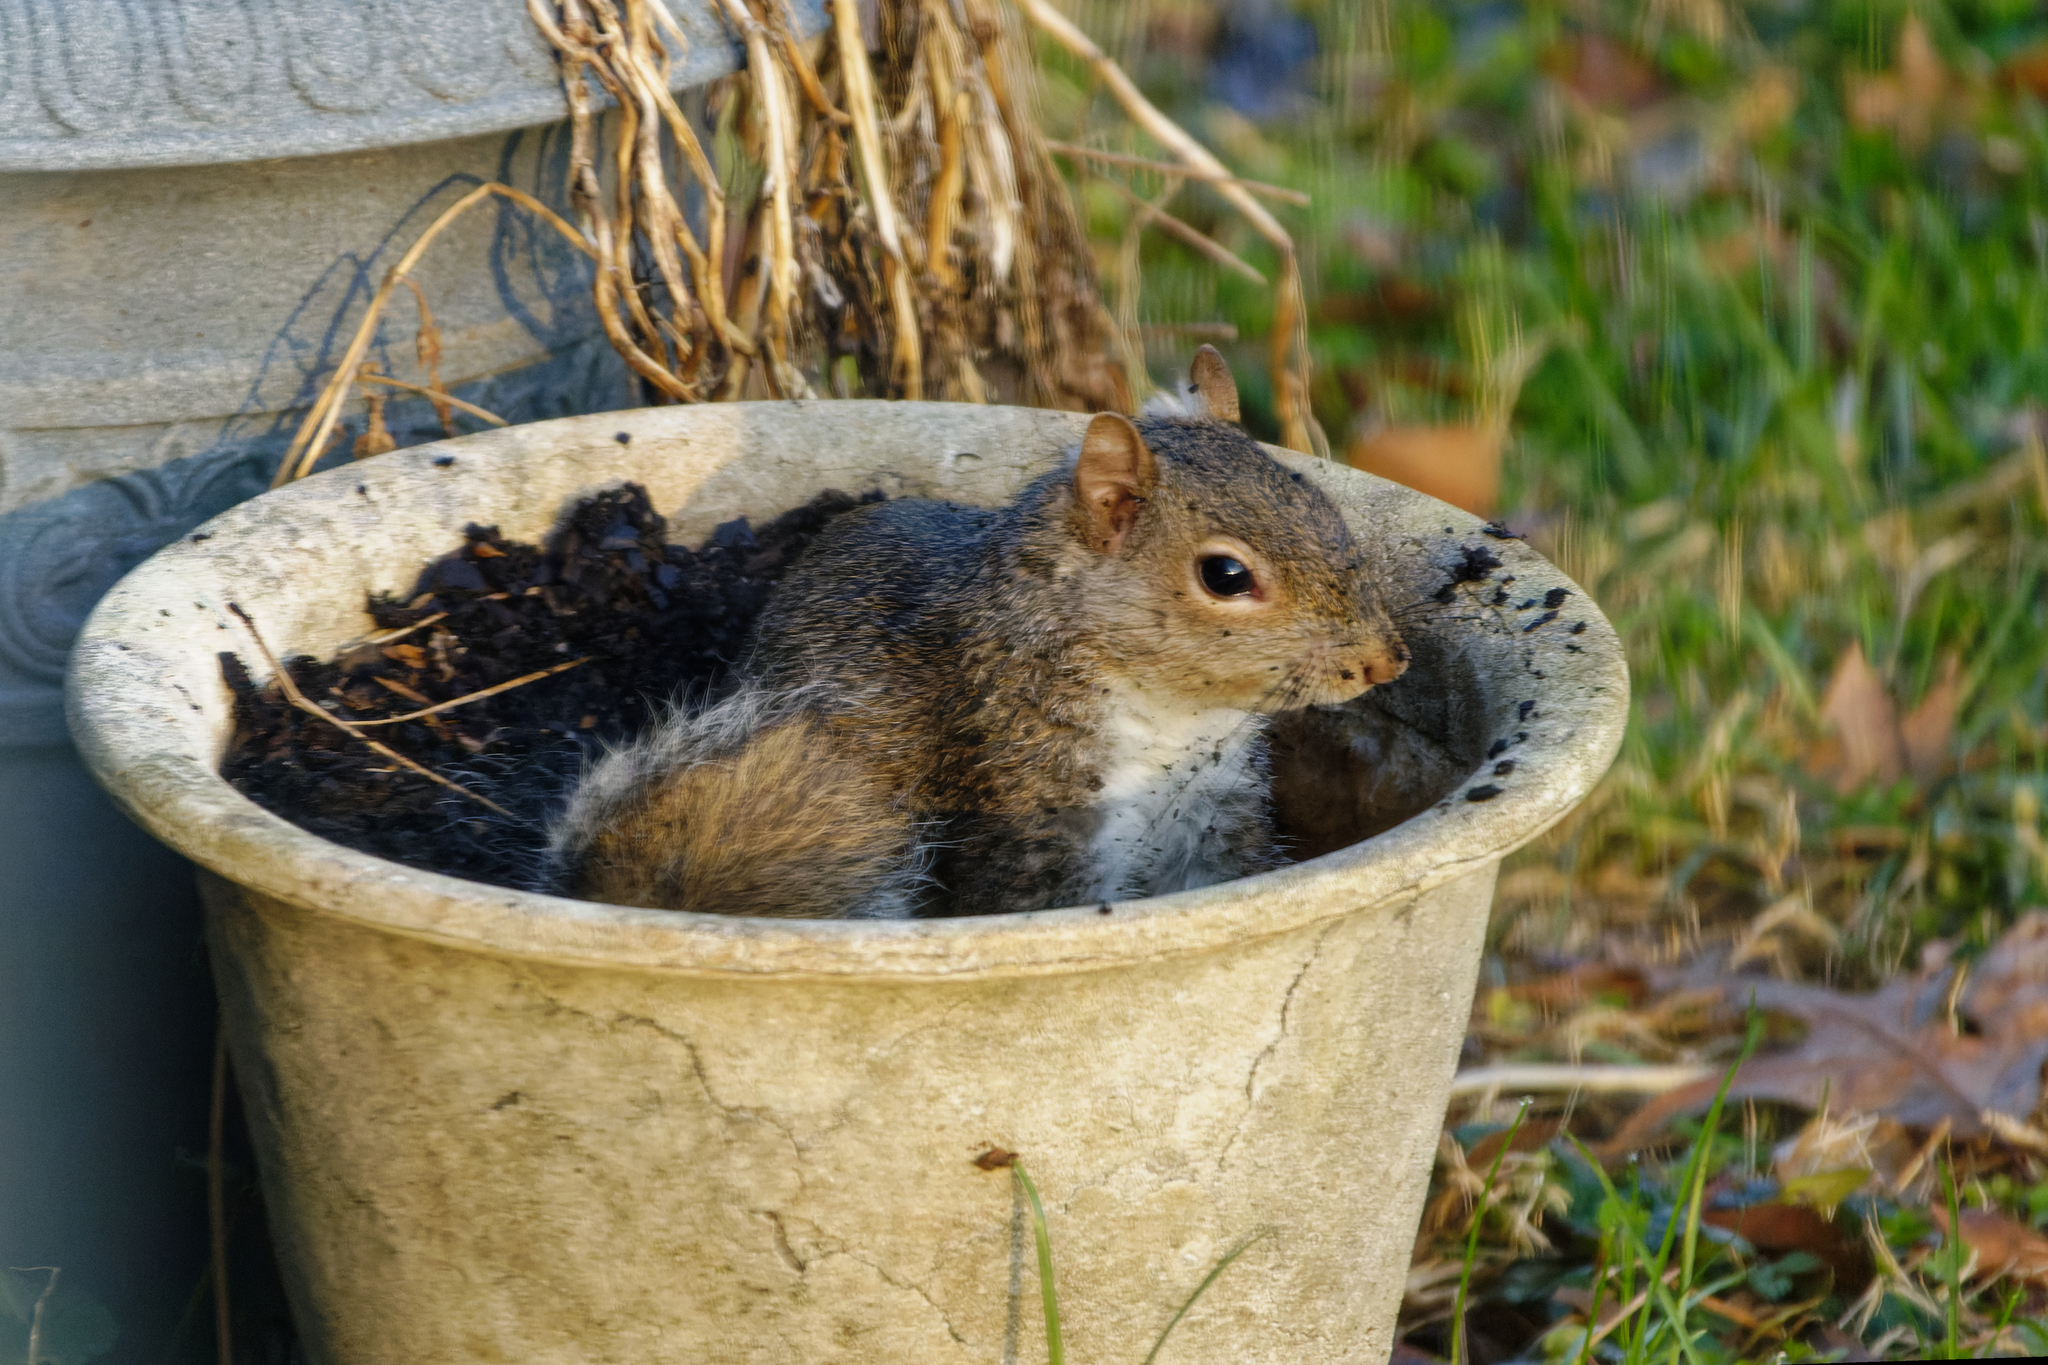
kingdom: Animalia
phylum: Chordata
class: Mammalia
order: Rodentia
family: Sciuridae
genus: Sciurus
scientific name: Sciurus carolinensis
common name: Eastern gray squirrel
